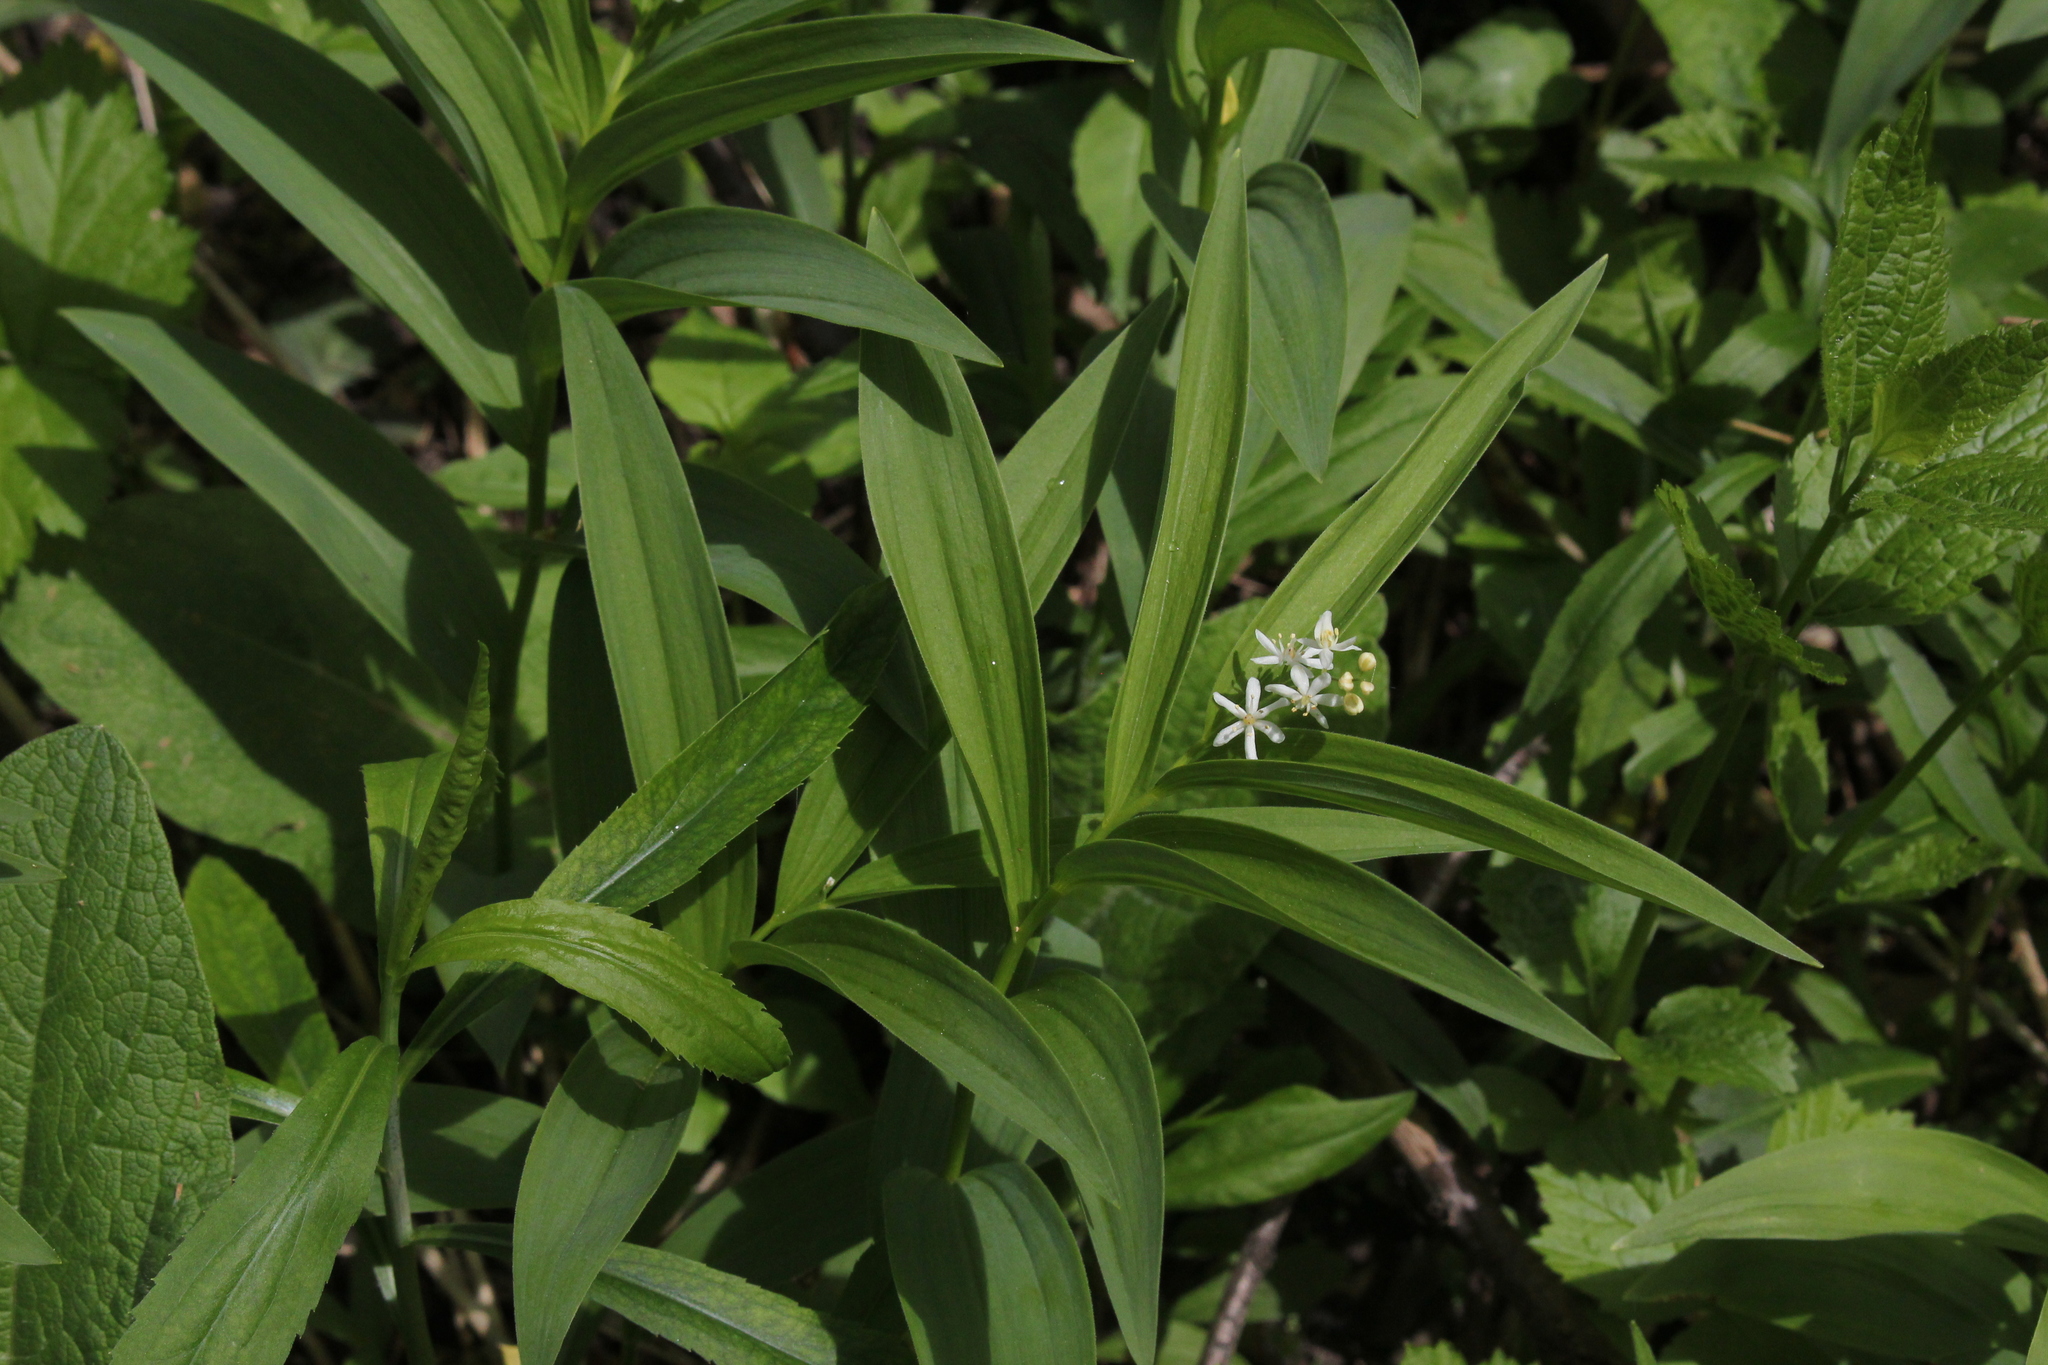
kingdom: Plantae
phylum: Tracheophyta
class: Liliopsida
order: Asparagales
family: Asparagaceae
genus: Maianthemum
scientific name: Maianthemum stellatum
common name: Little false solomon's seal
